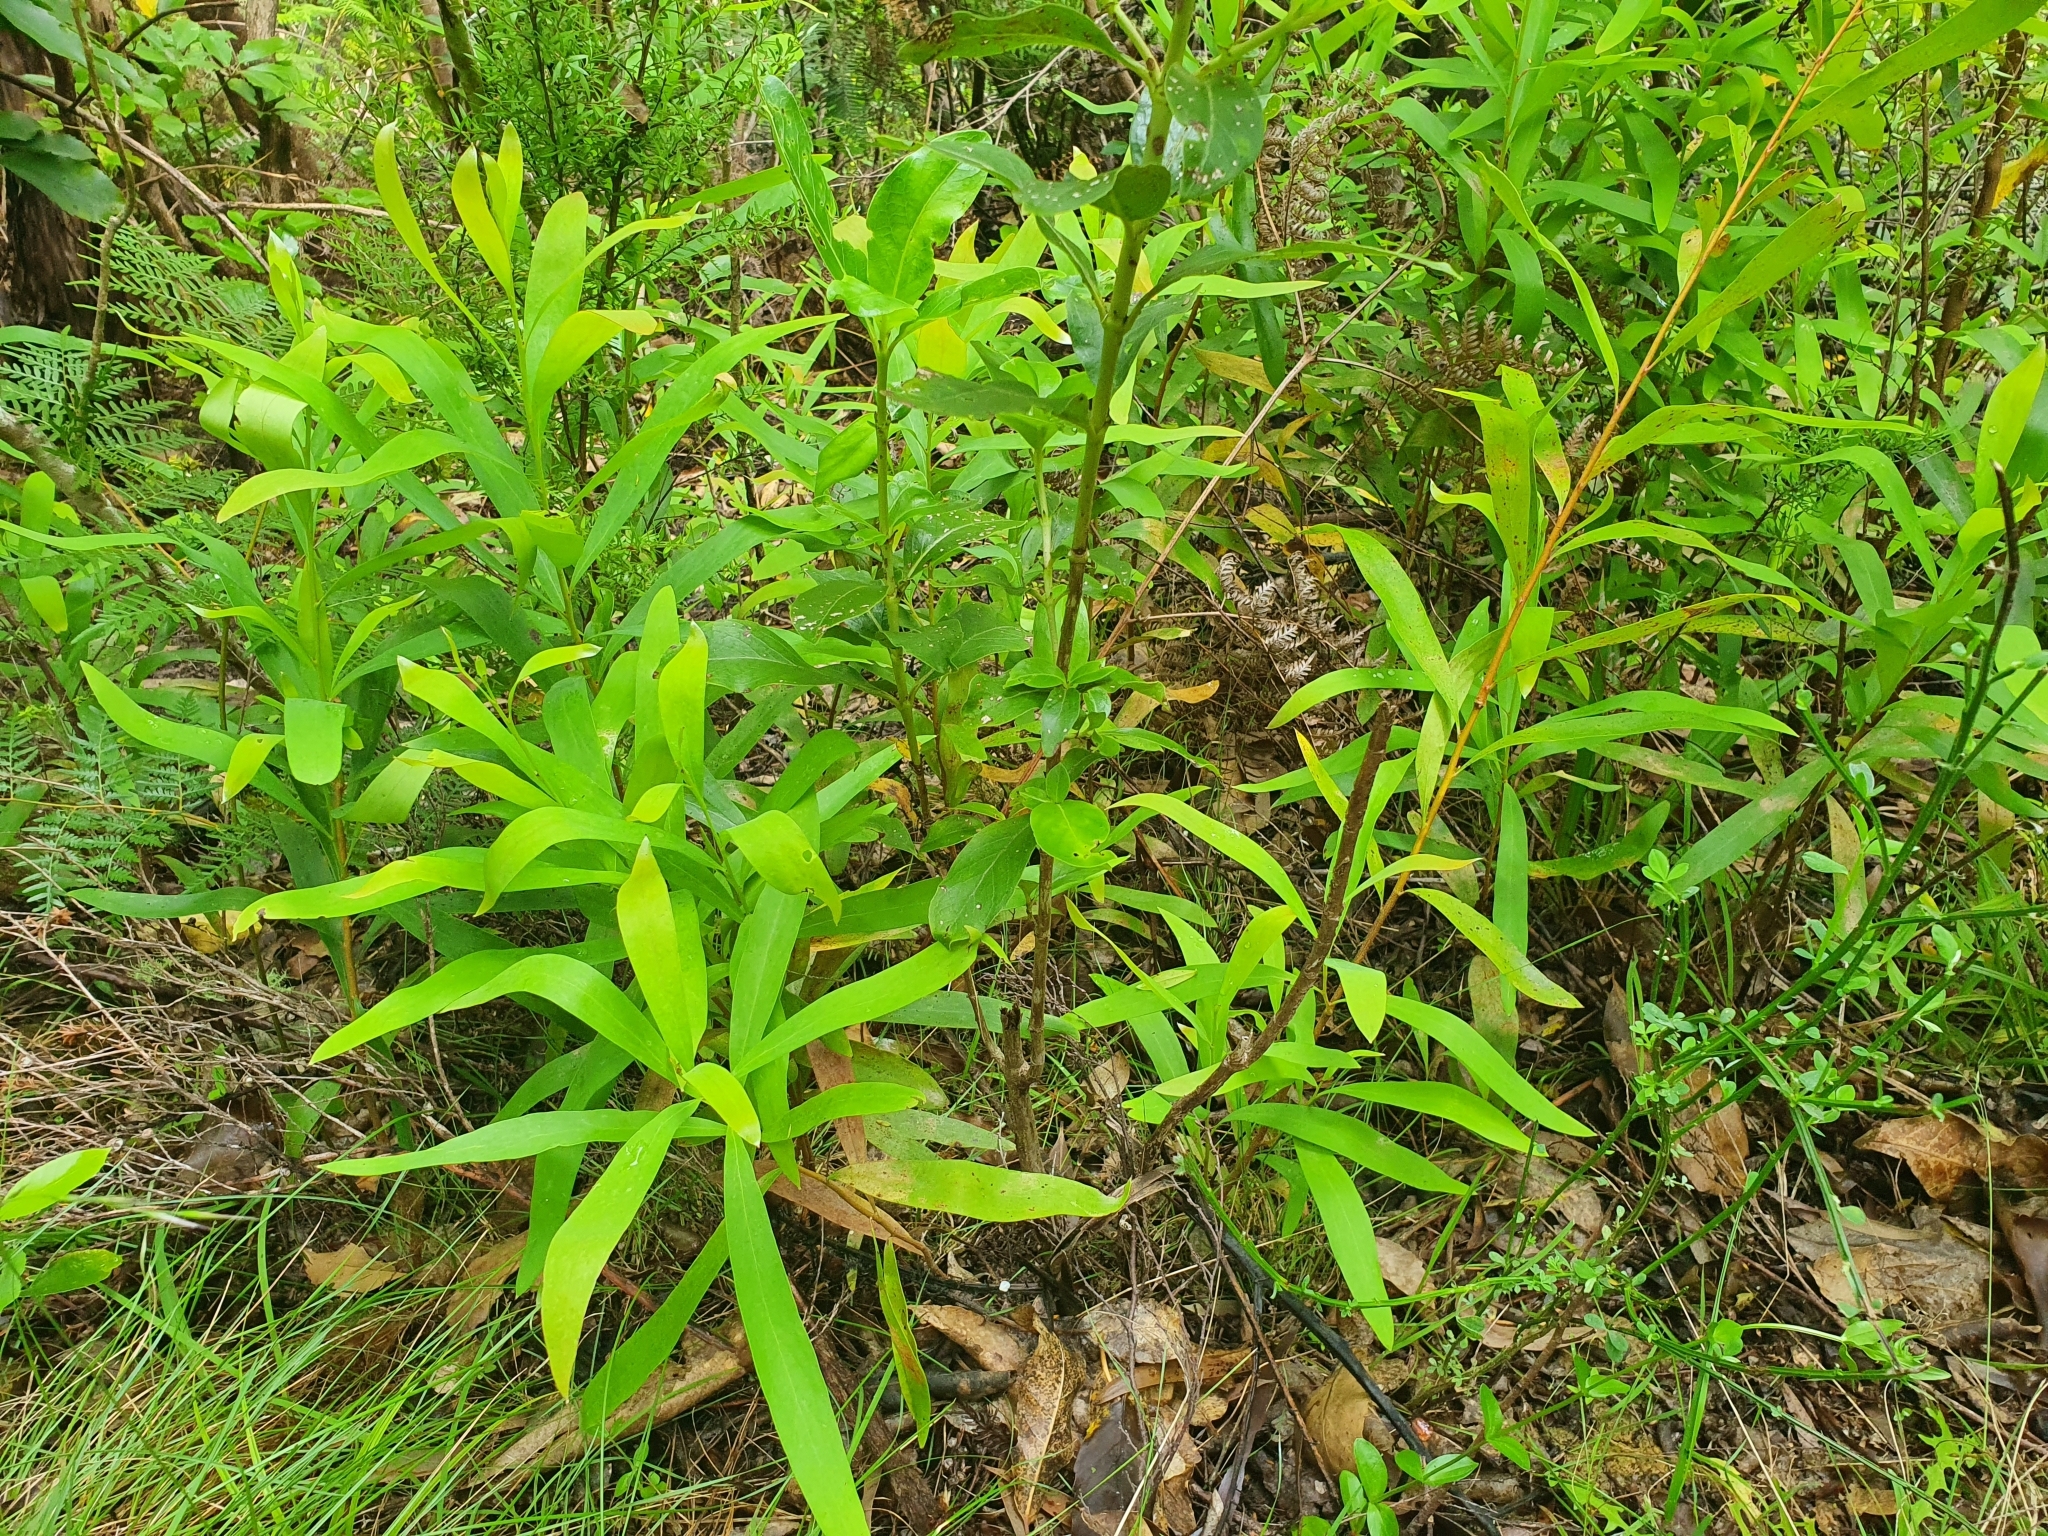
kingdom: Plantae
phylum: Tracheophyta
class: Magnoliopsida
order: Proteales
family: Proteaceae
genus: Hakea
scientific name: Hakea salicifolia
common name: Willow hakea
